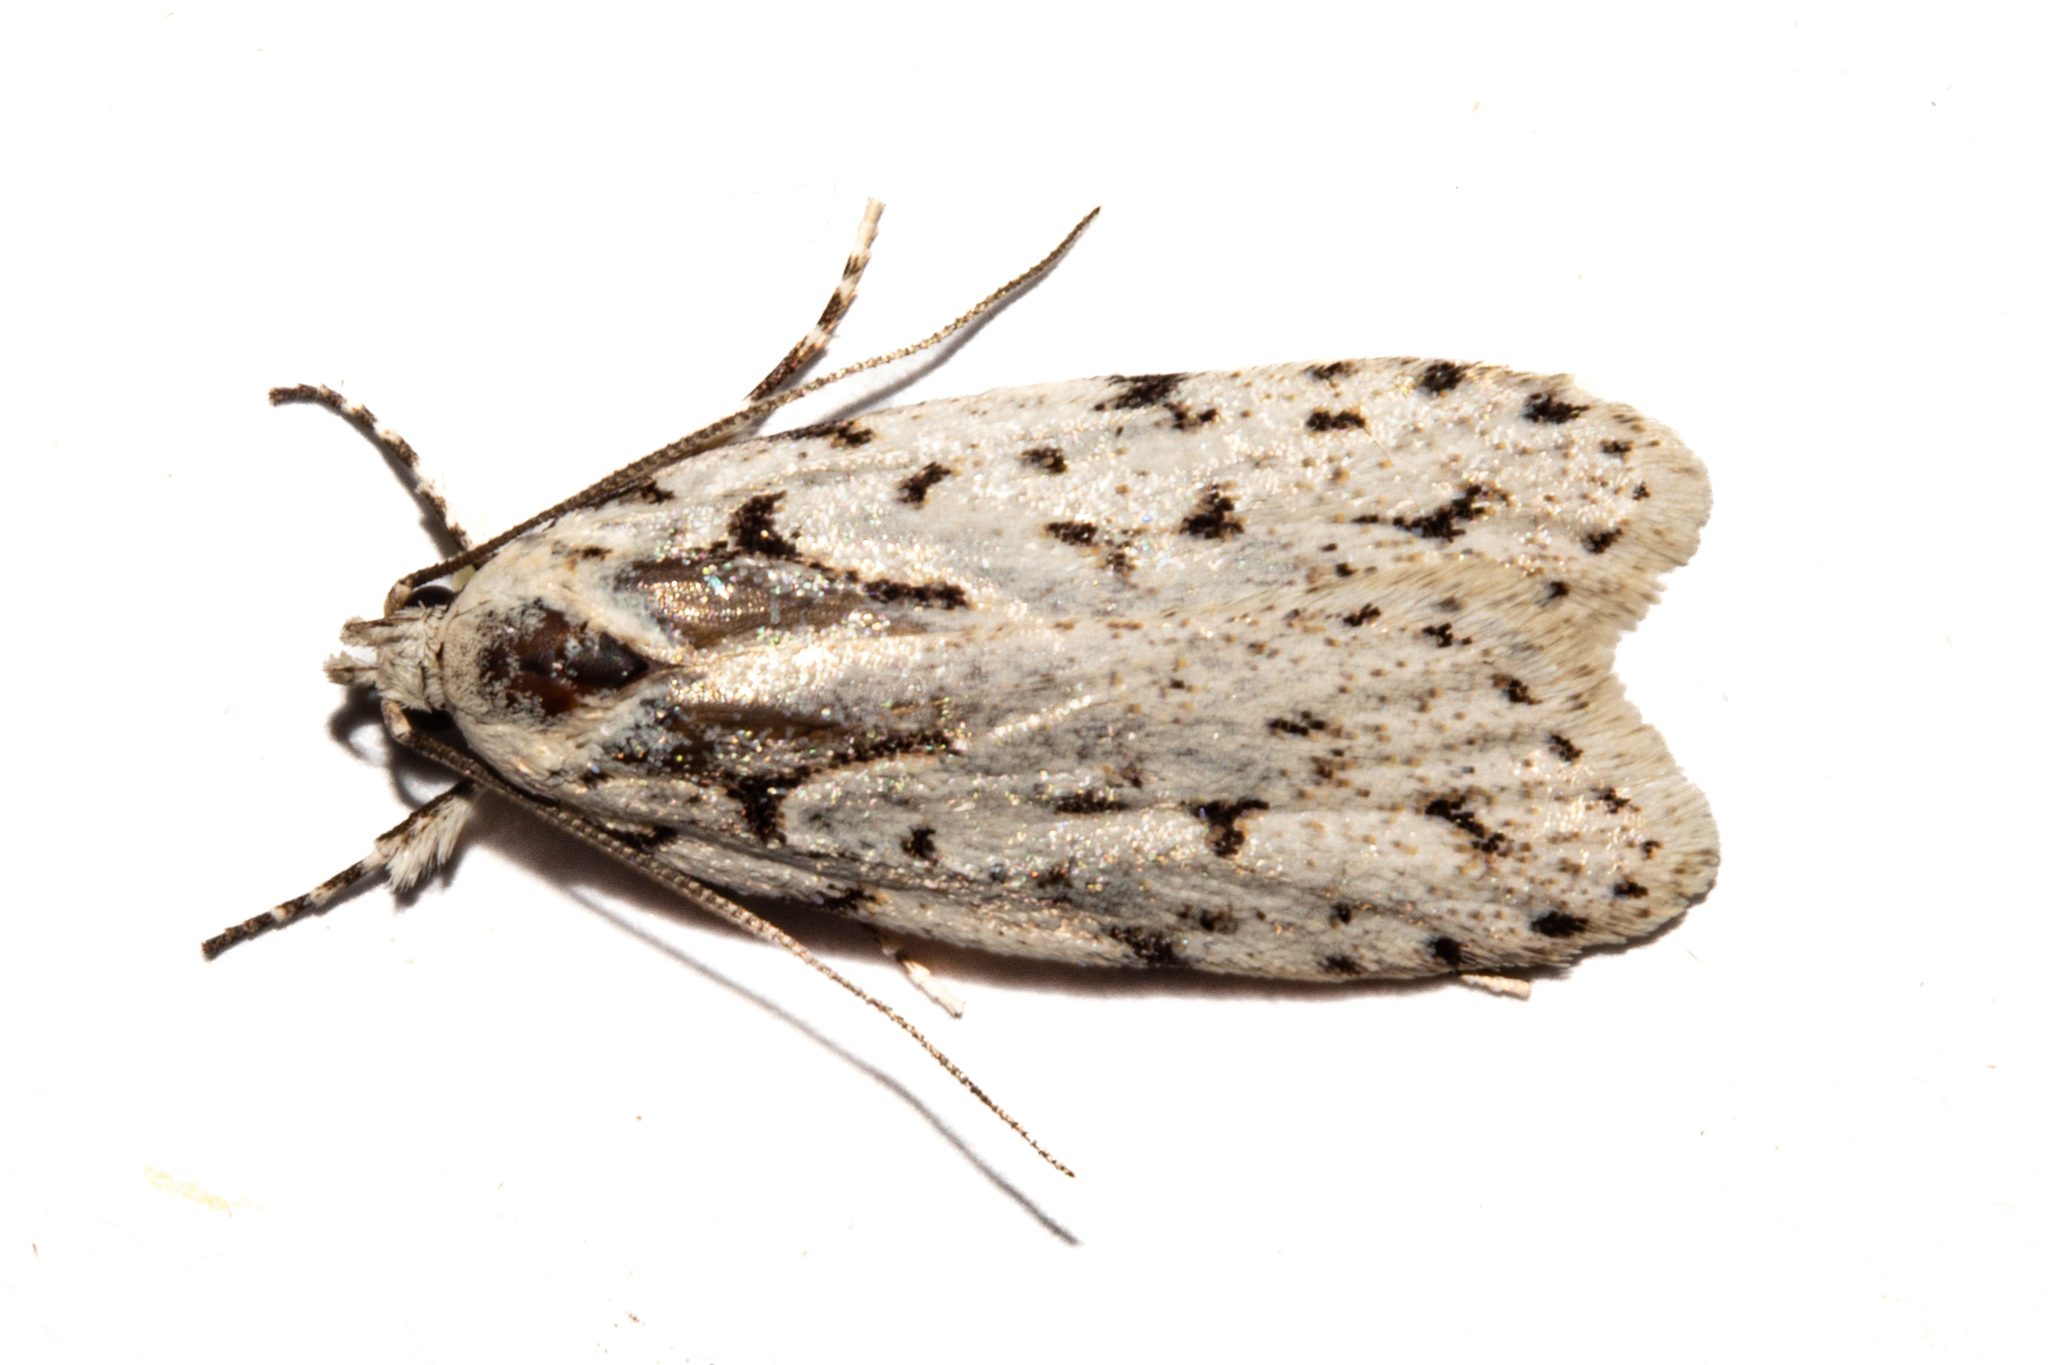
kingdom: Animalia
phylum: Arthropoda
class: Insecta
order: Lepidoptera
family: Oecophoridae
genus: Izatha
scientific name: Izatha heroica
